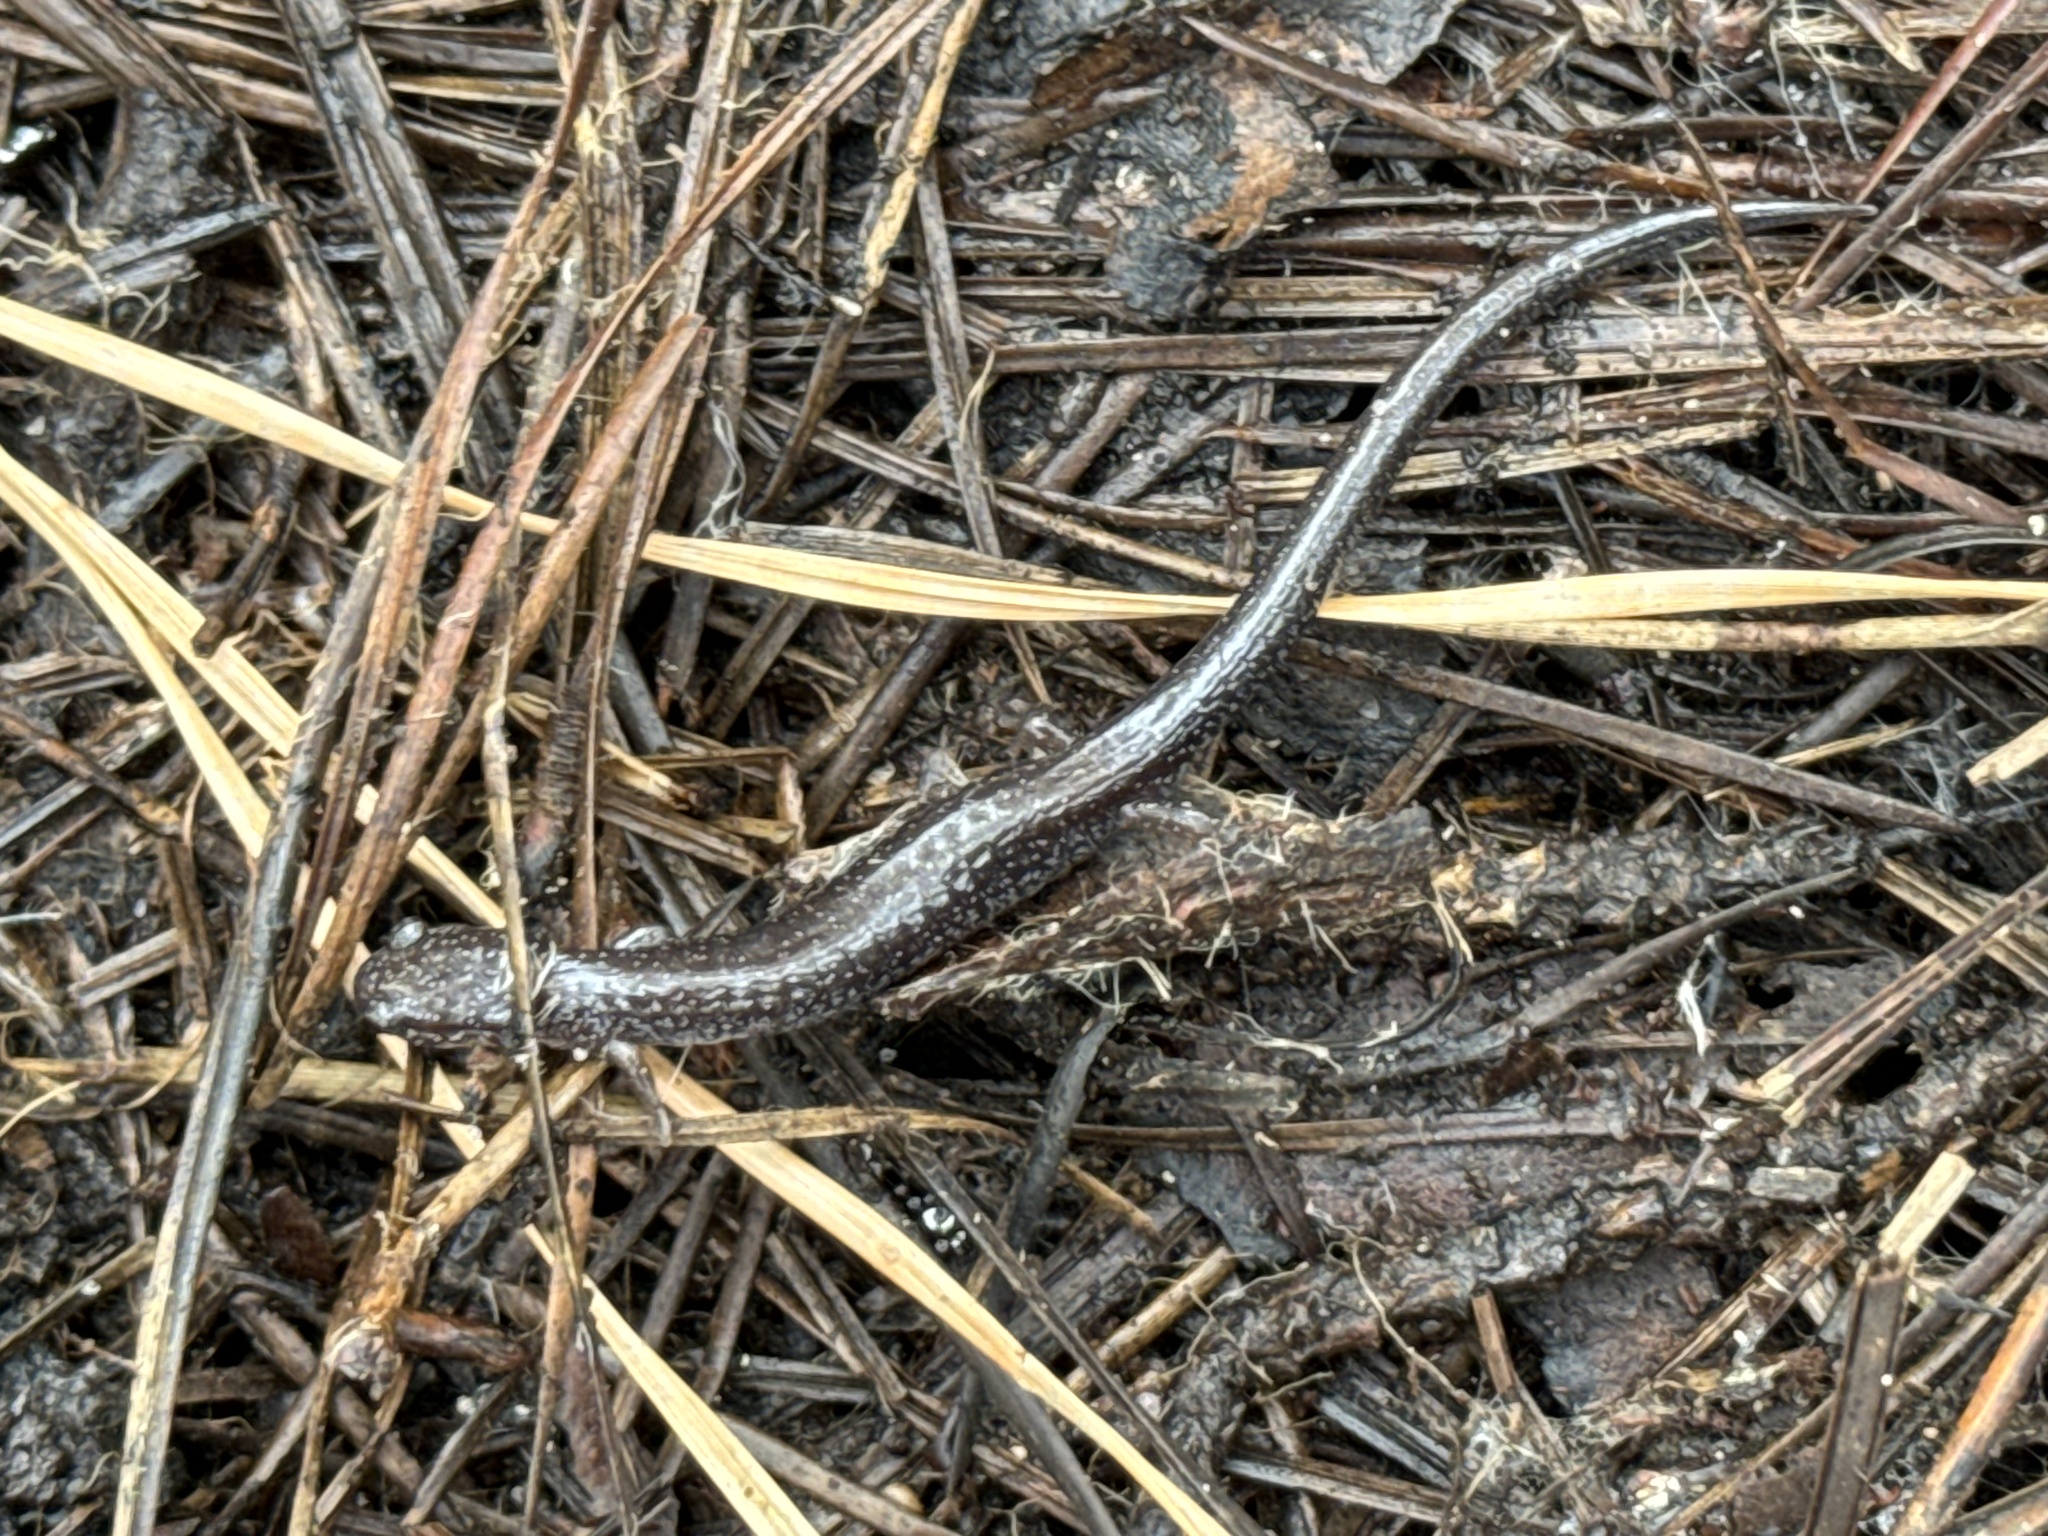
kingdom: Animalia
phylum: Chordata
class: Amphibia
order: Caudata
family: Plethodontidae
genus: Plethodon
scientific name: Plethodon cinereus
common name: Redback salamander
